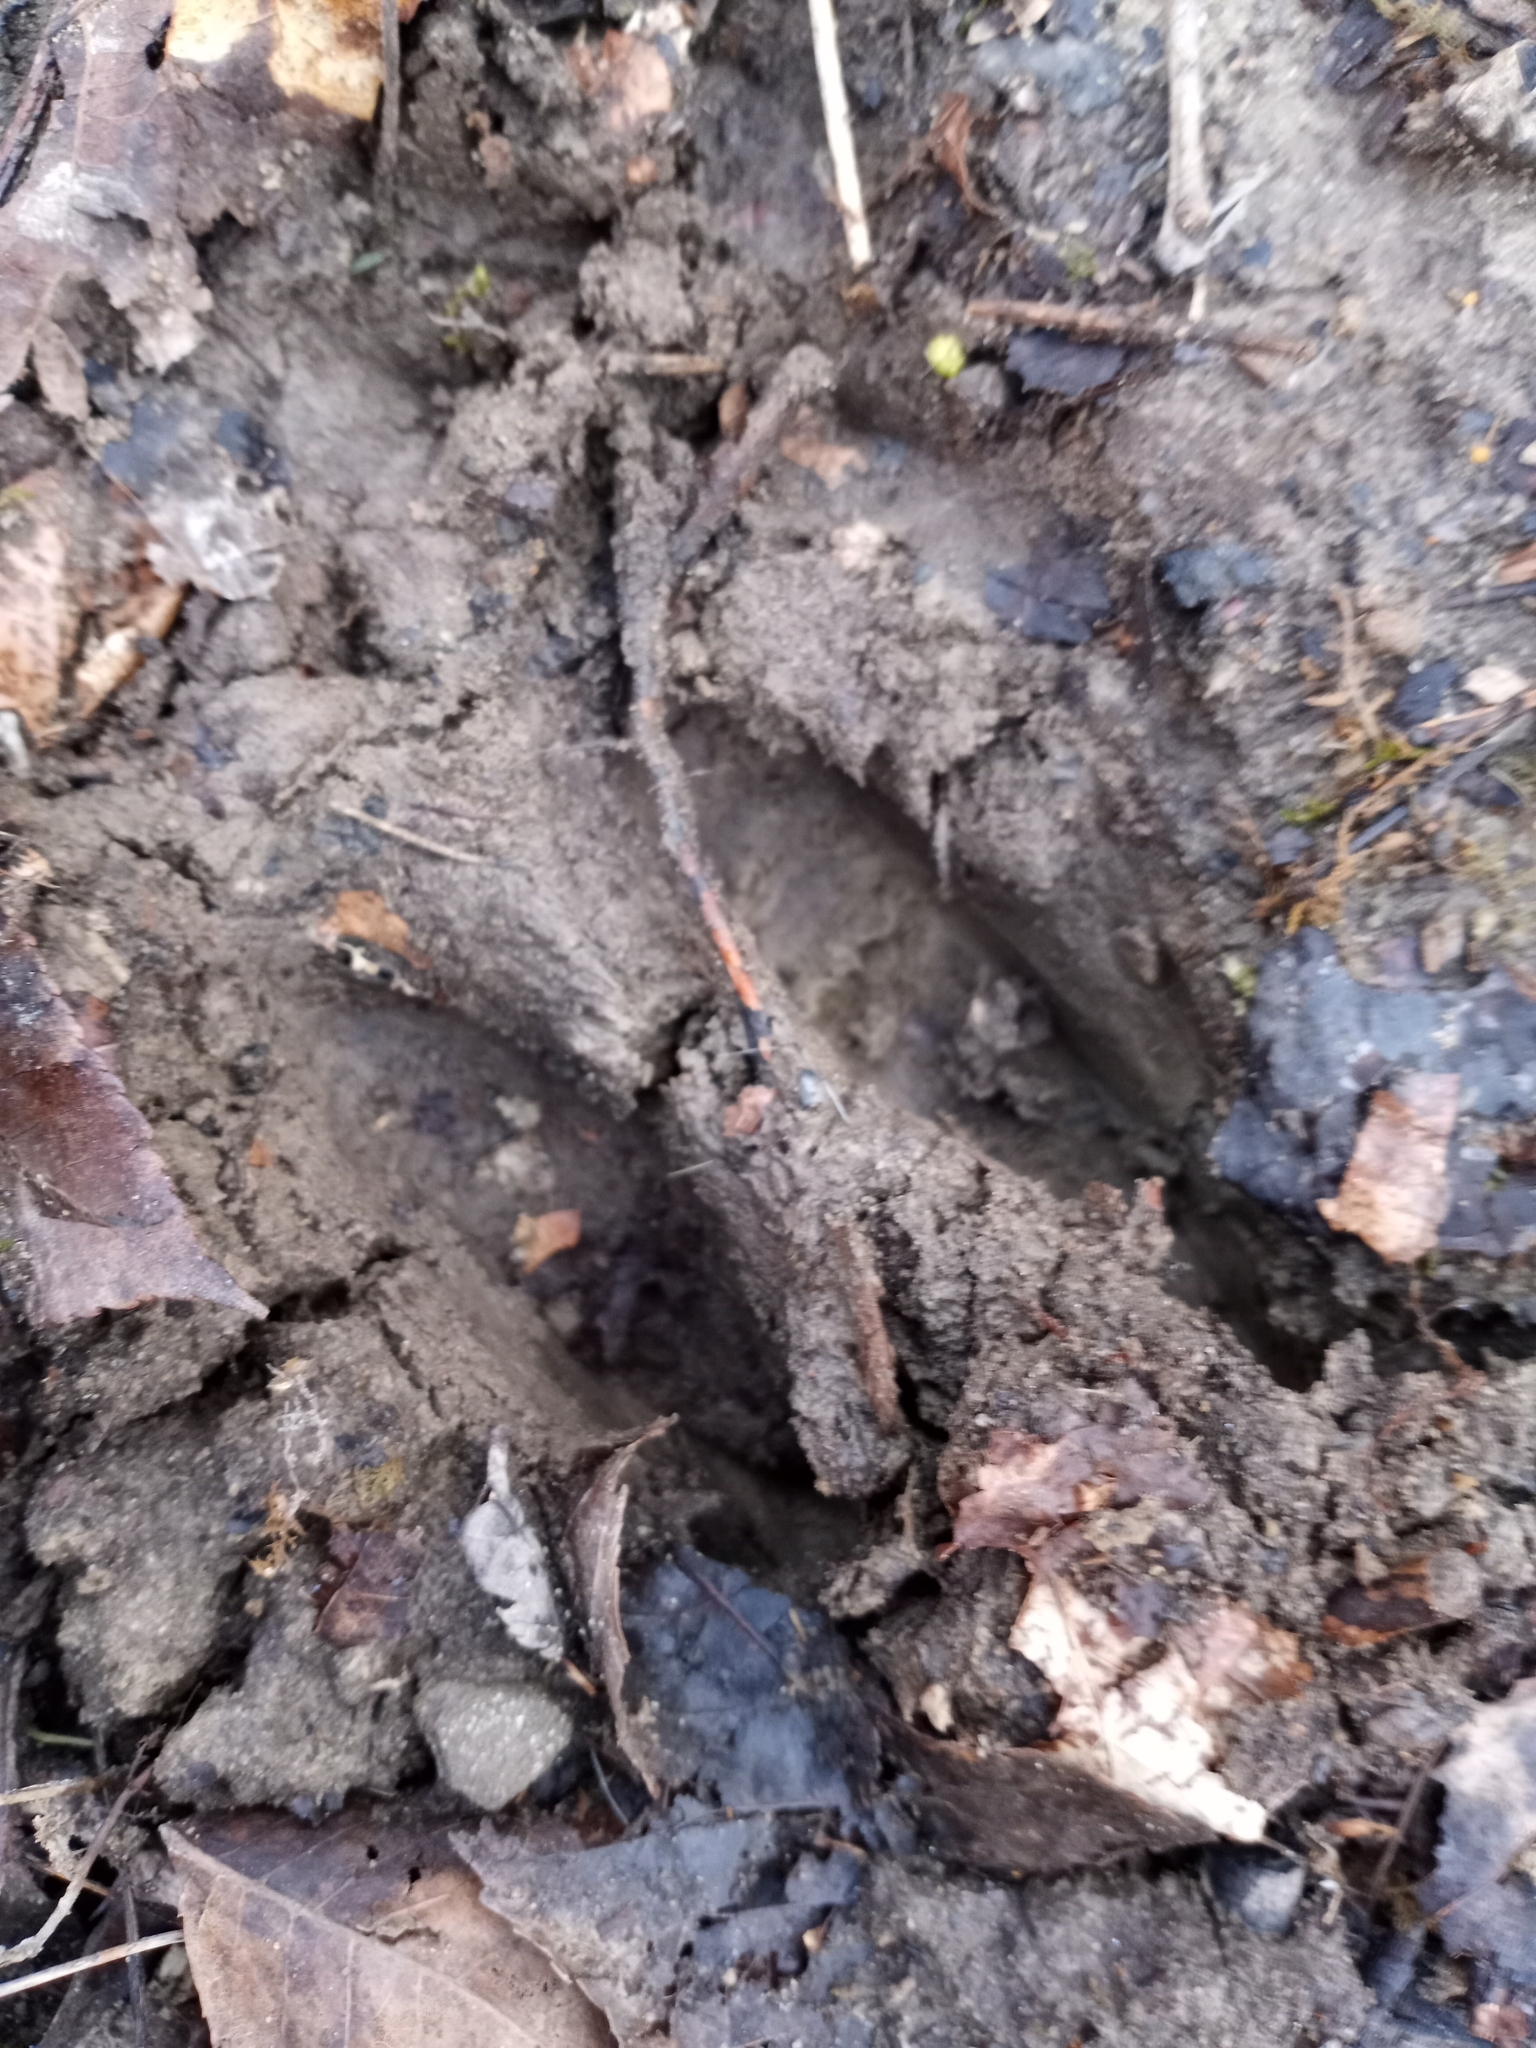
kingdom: Animalia
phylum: Chordata
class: Mammalia
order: Artiodactyla
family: Cervidae
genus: Odocoileus
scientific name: Odocoileus virginianus
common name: White-tailed deer
